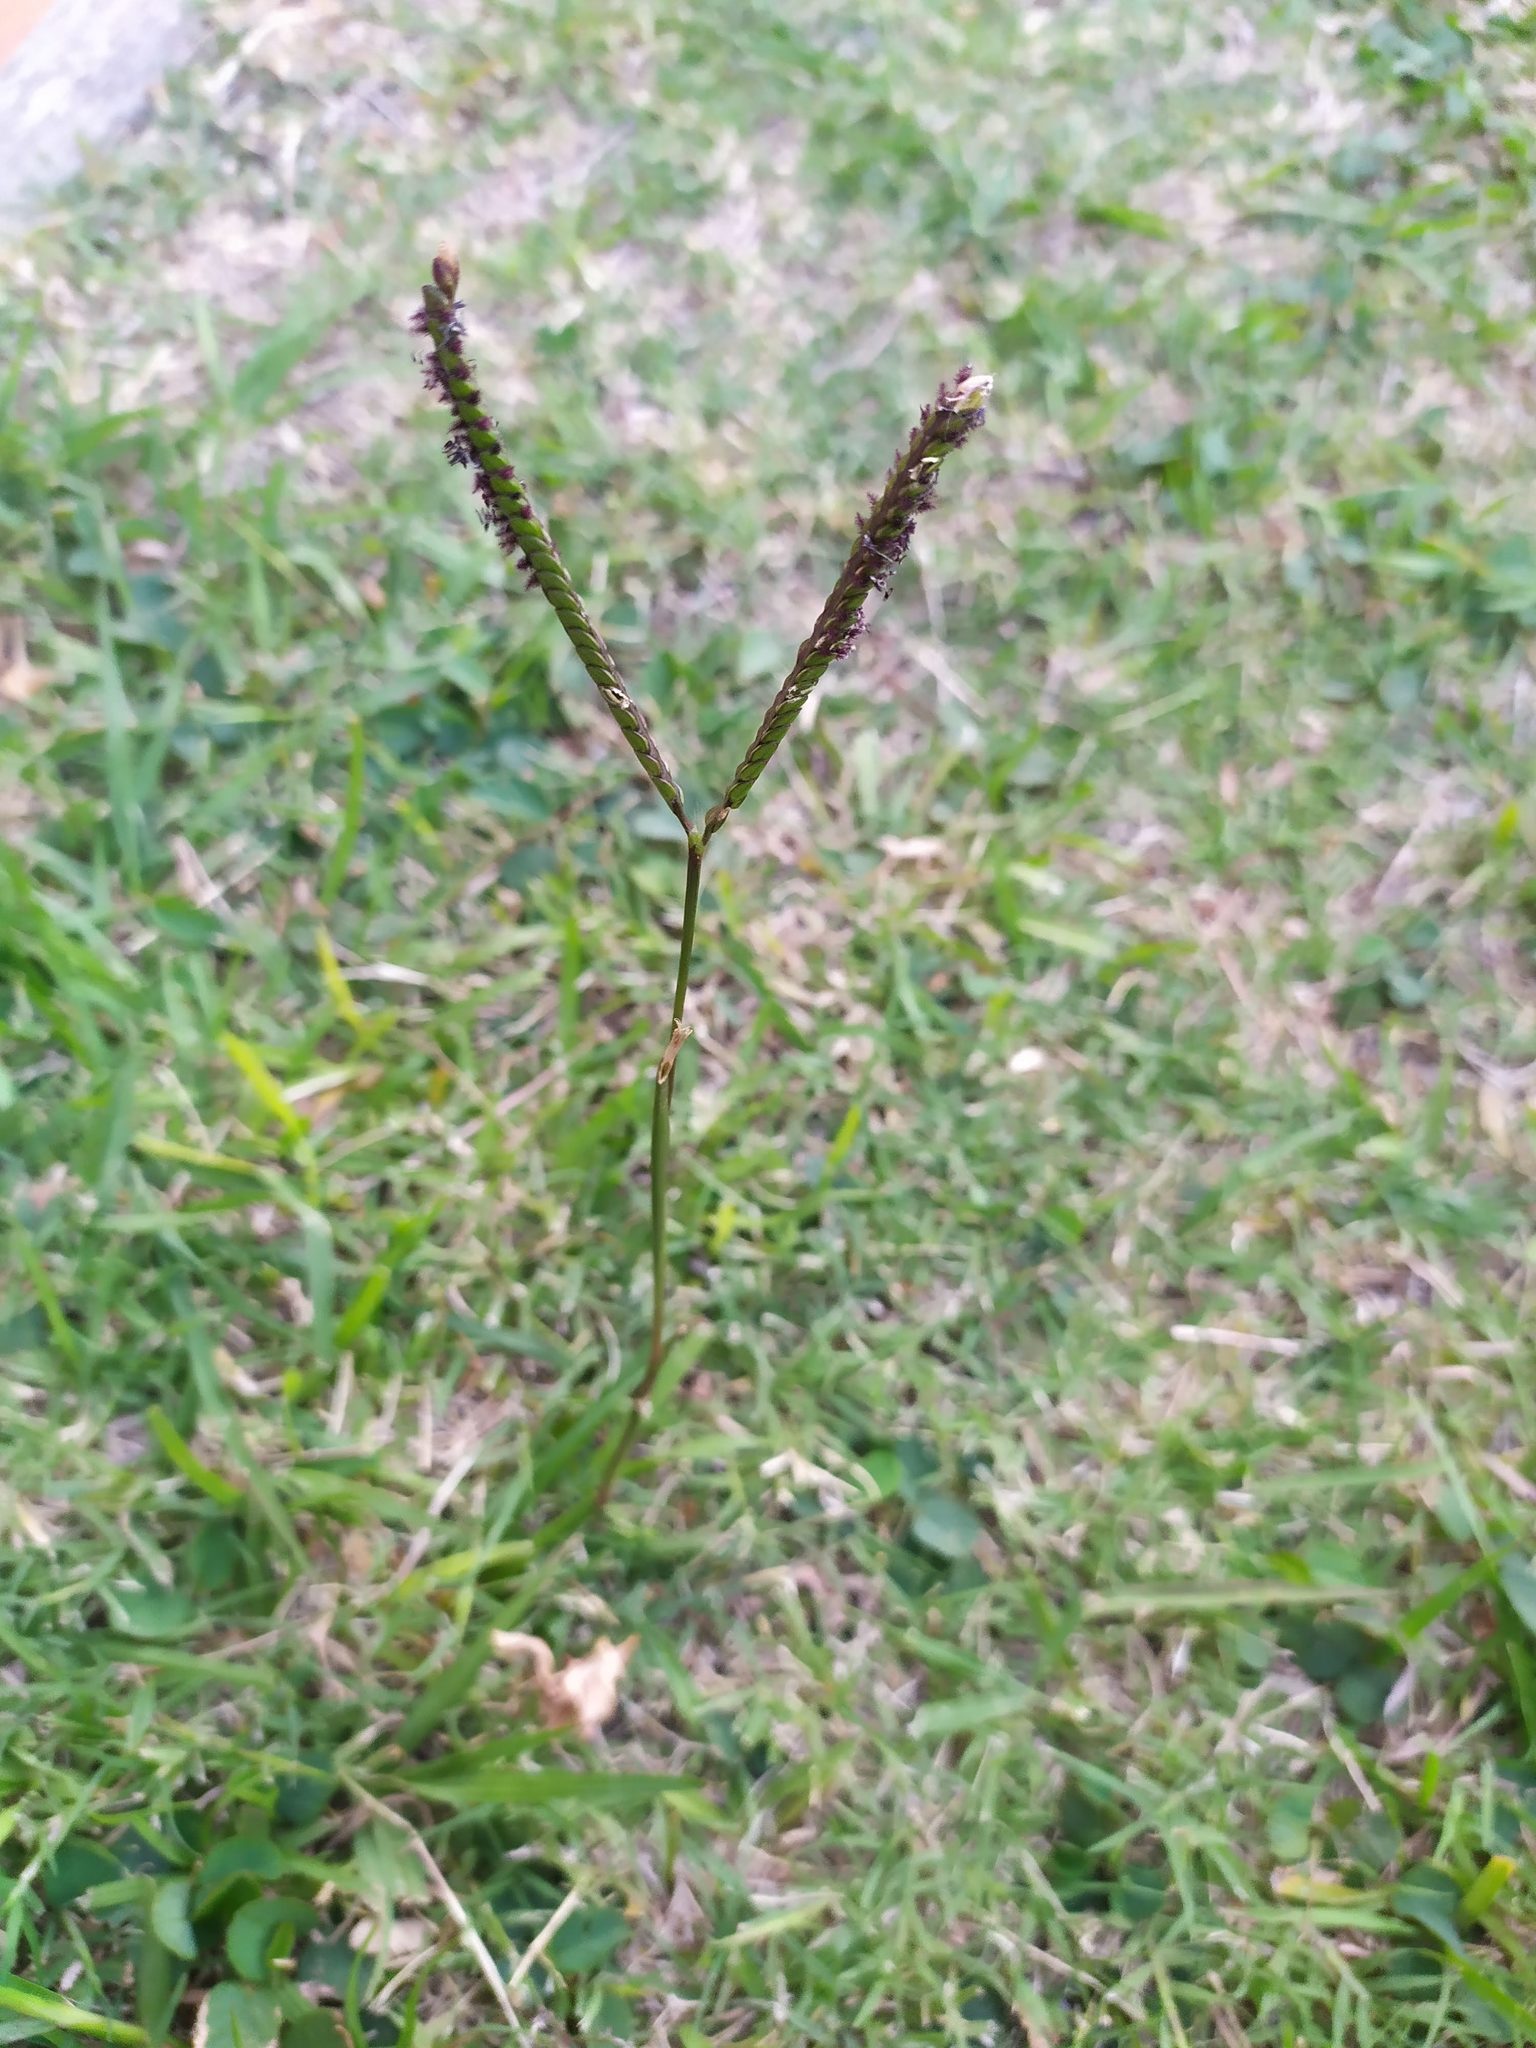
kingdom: Plantae
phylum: Tracheophyta
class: Liliopsida
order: Poales
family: Poaceae
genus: Paspalum
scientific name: Paspalum notatum
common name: Bahiagrass
